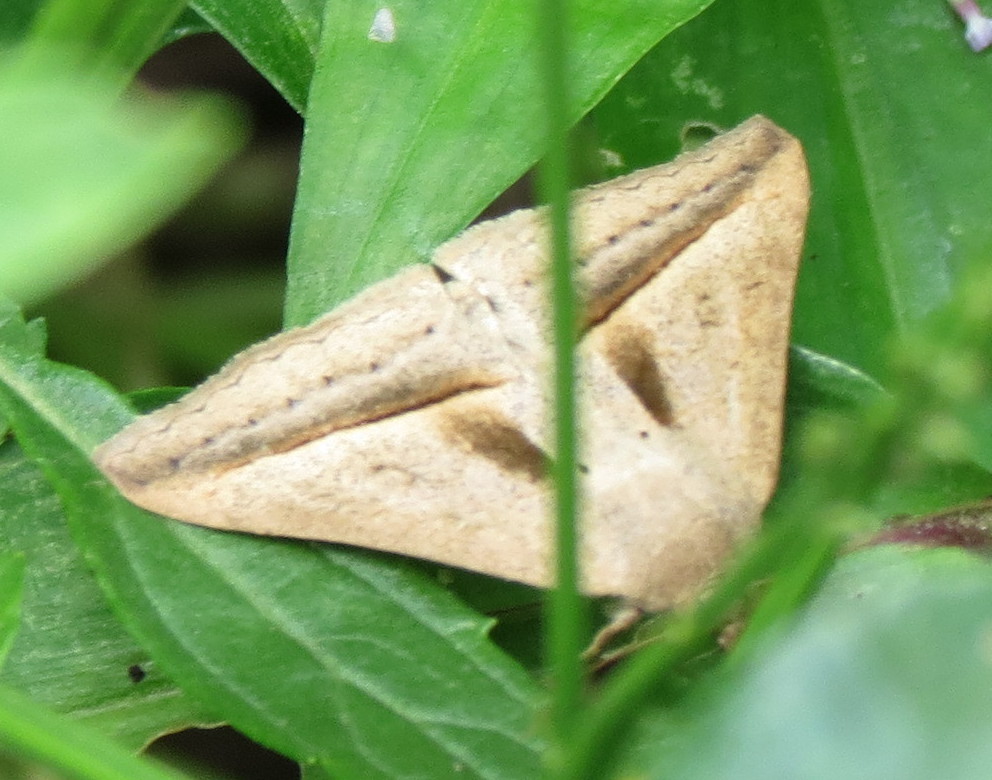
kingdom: Animalia
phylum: Arthropoda
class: Insecta
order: Lepidoptera
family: Erebidae
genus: Mocis
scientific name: Mocis proverai
